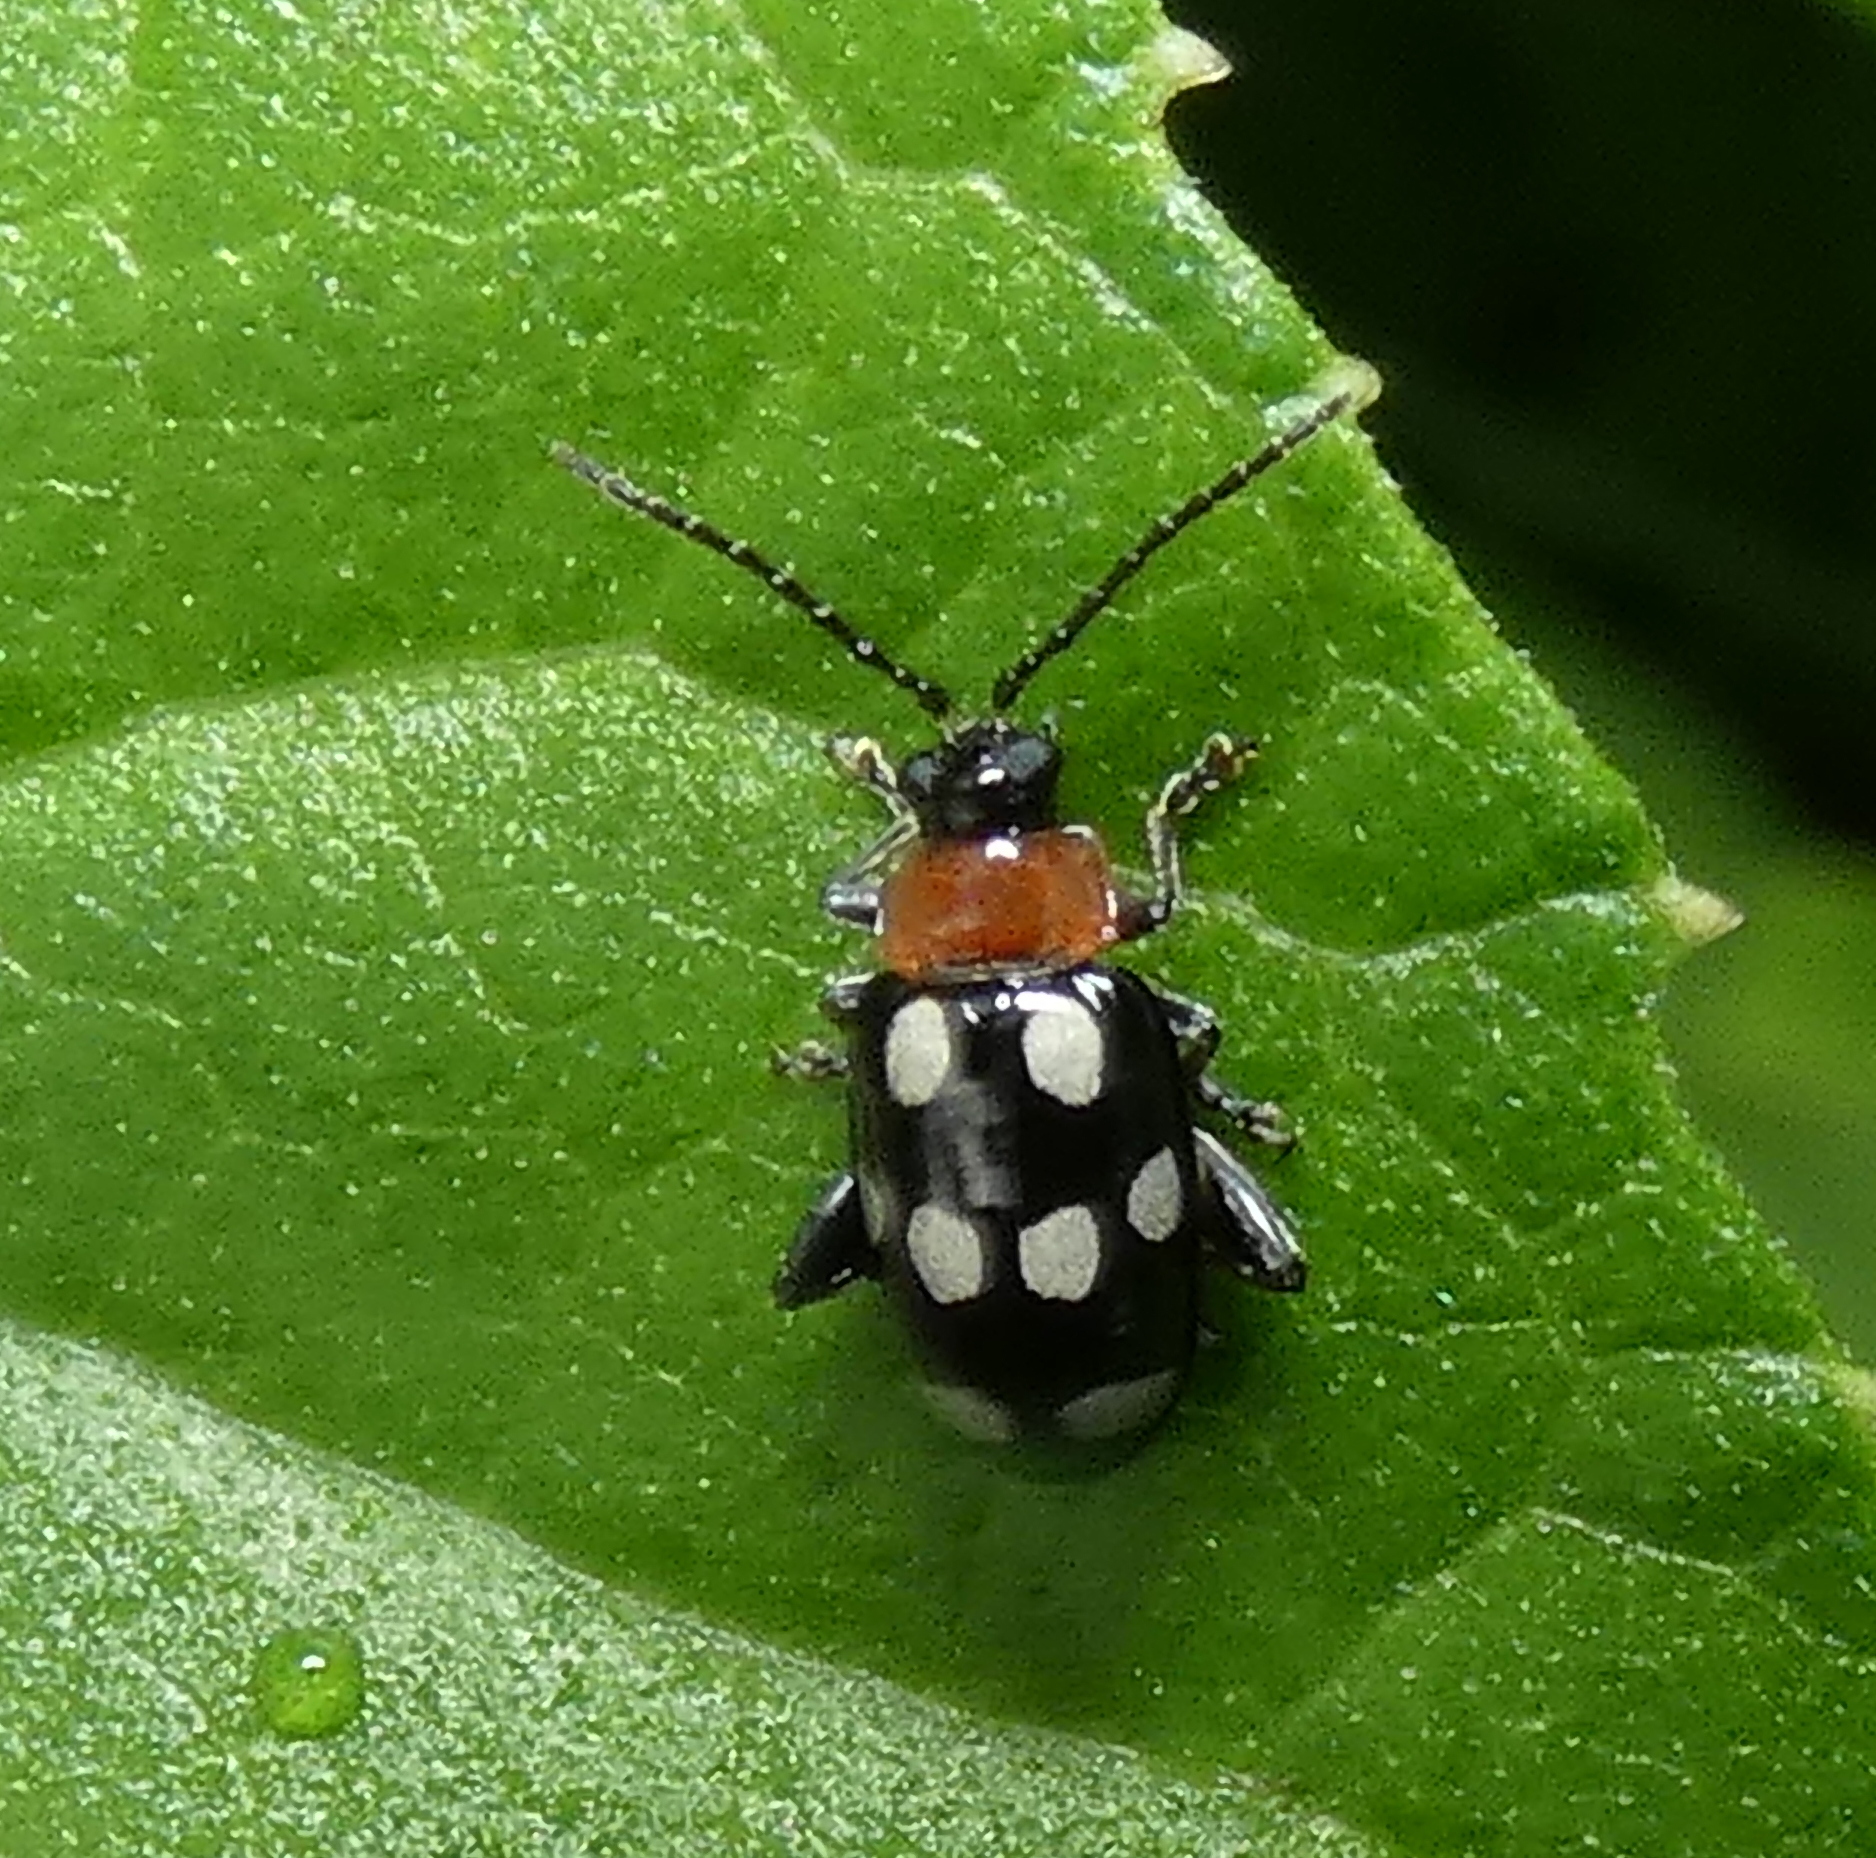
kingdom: Animalia
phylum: Arthropoda
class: Insecta
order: Coleoptera
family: Chrysomelidae
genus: Phenrica
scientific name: Phenrica austriaca
